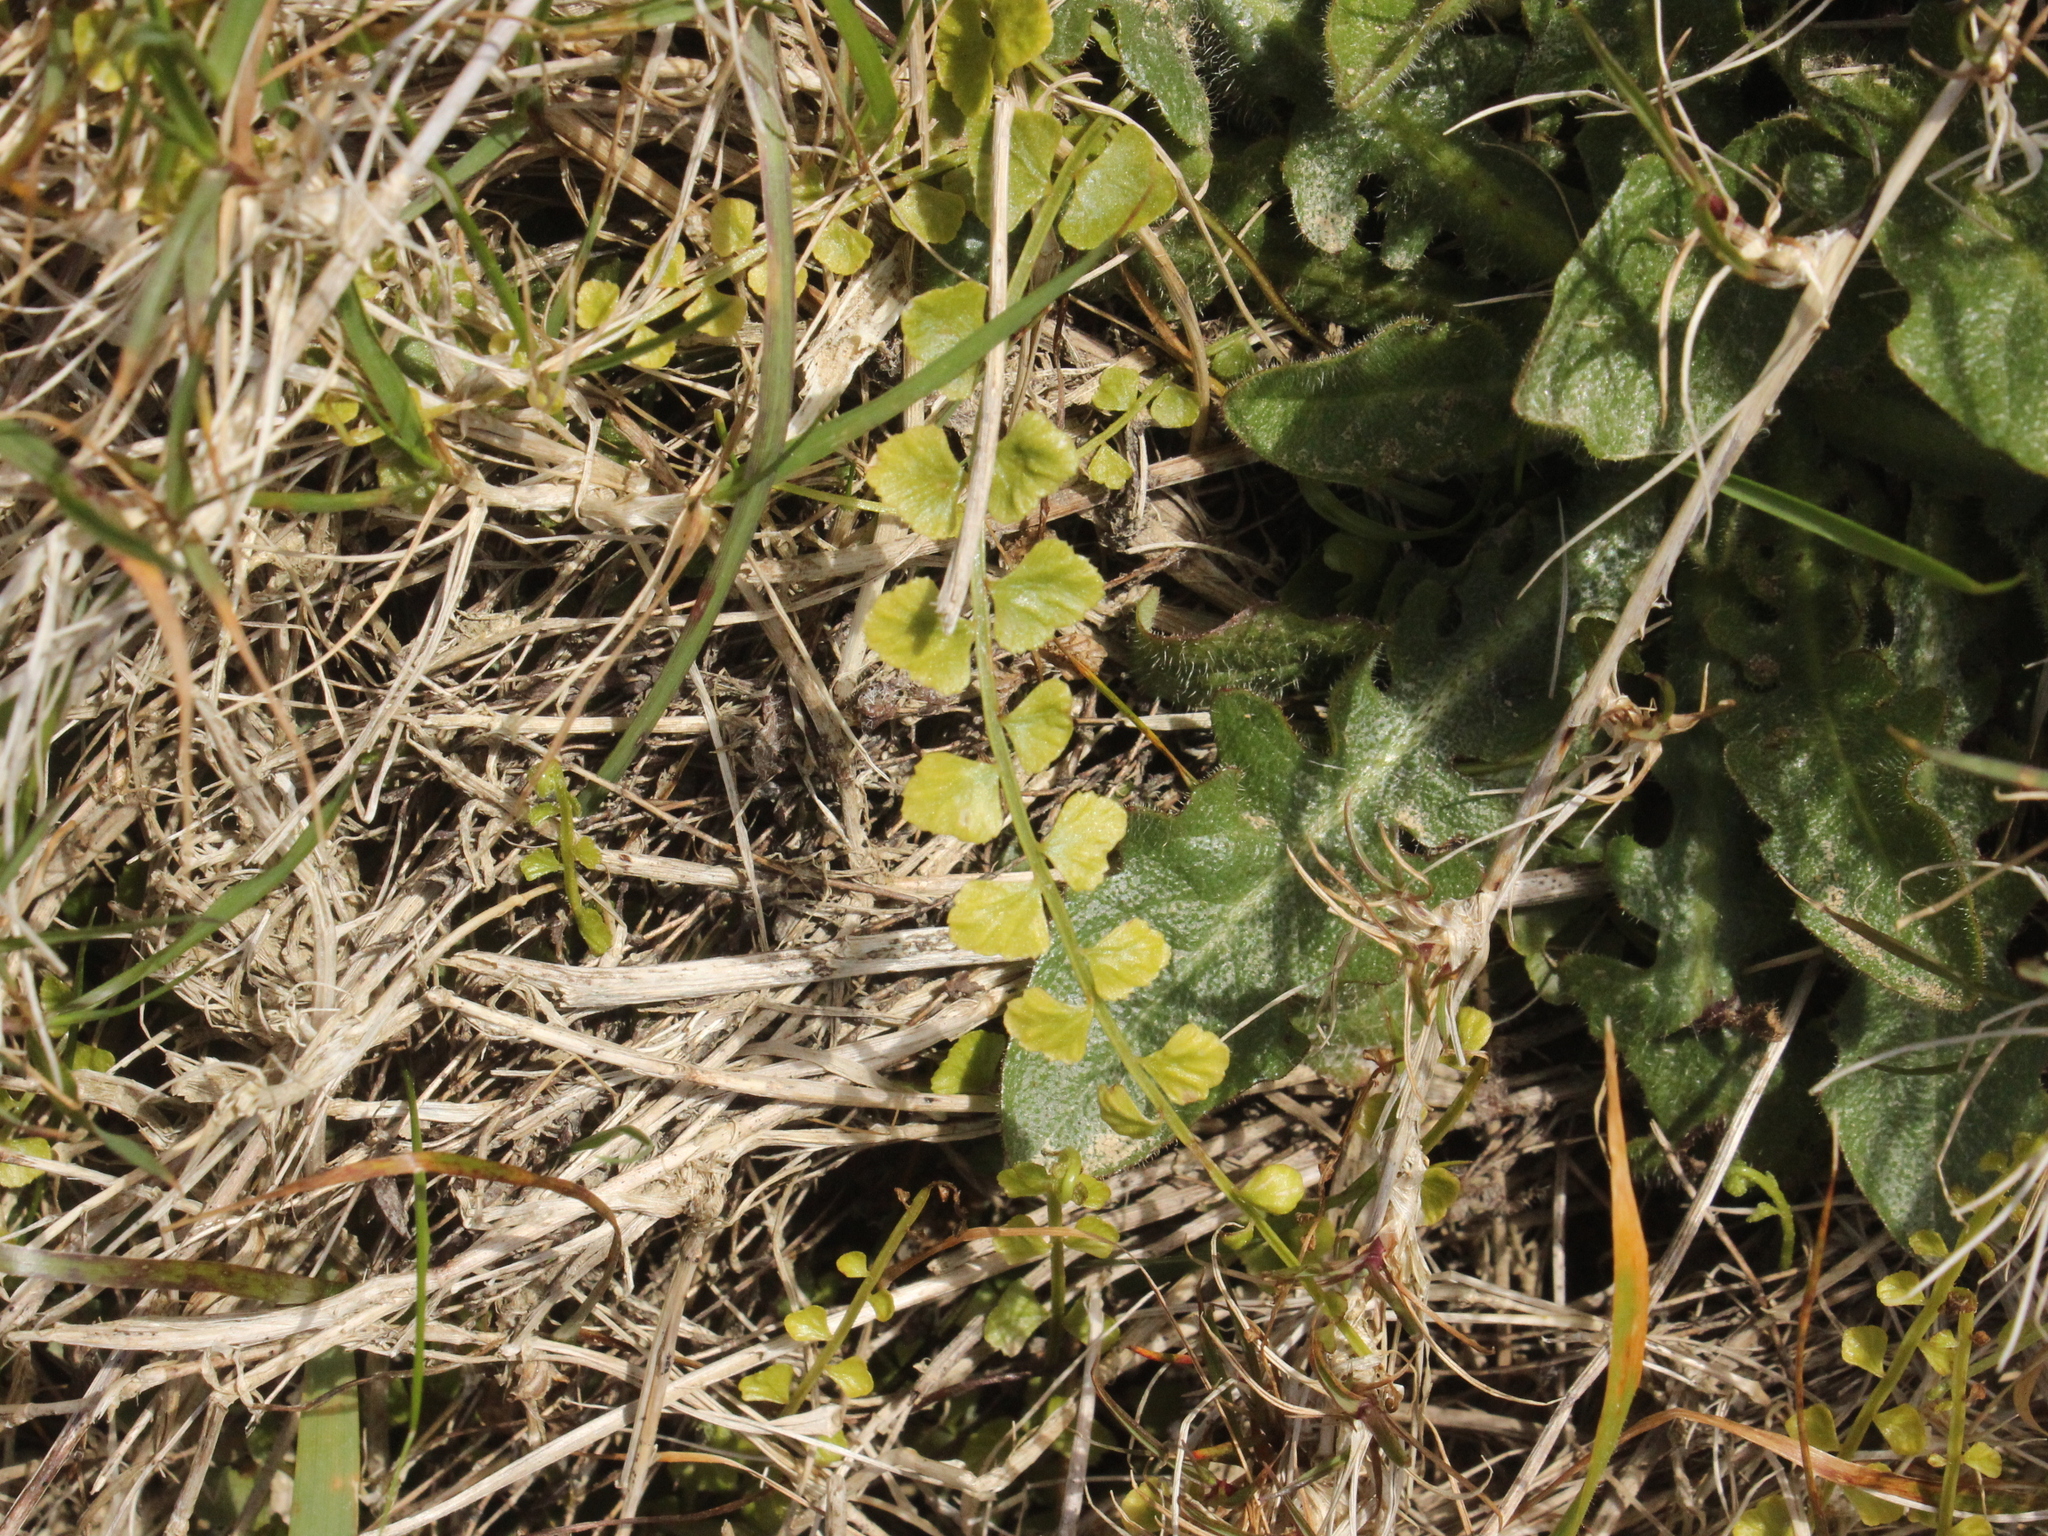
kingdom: Plantae
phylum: Tracheophyta
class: Polypodiopsida
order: Polypodiales
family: Aspleniaceae
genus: Asplenium
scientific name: Asplenium flabellifolium
